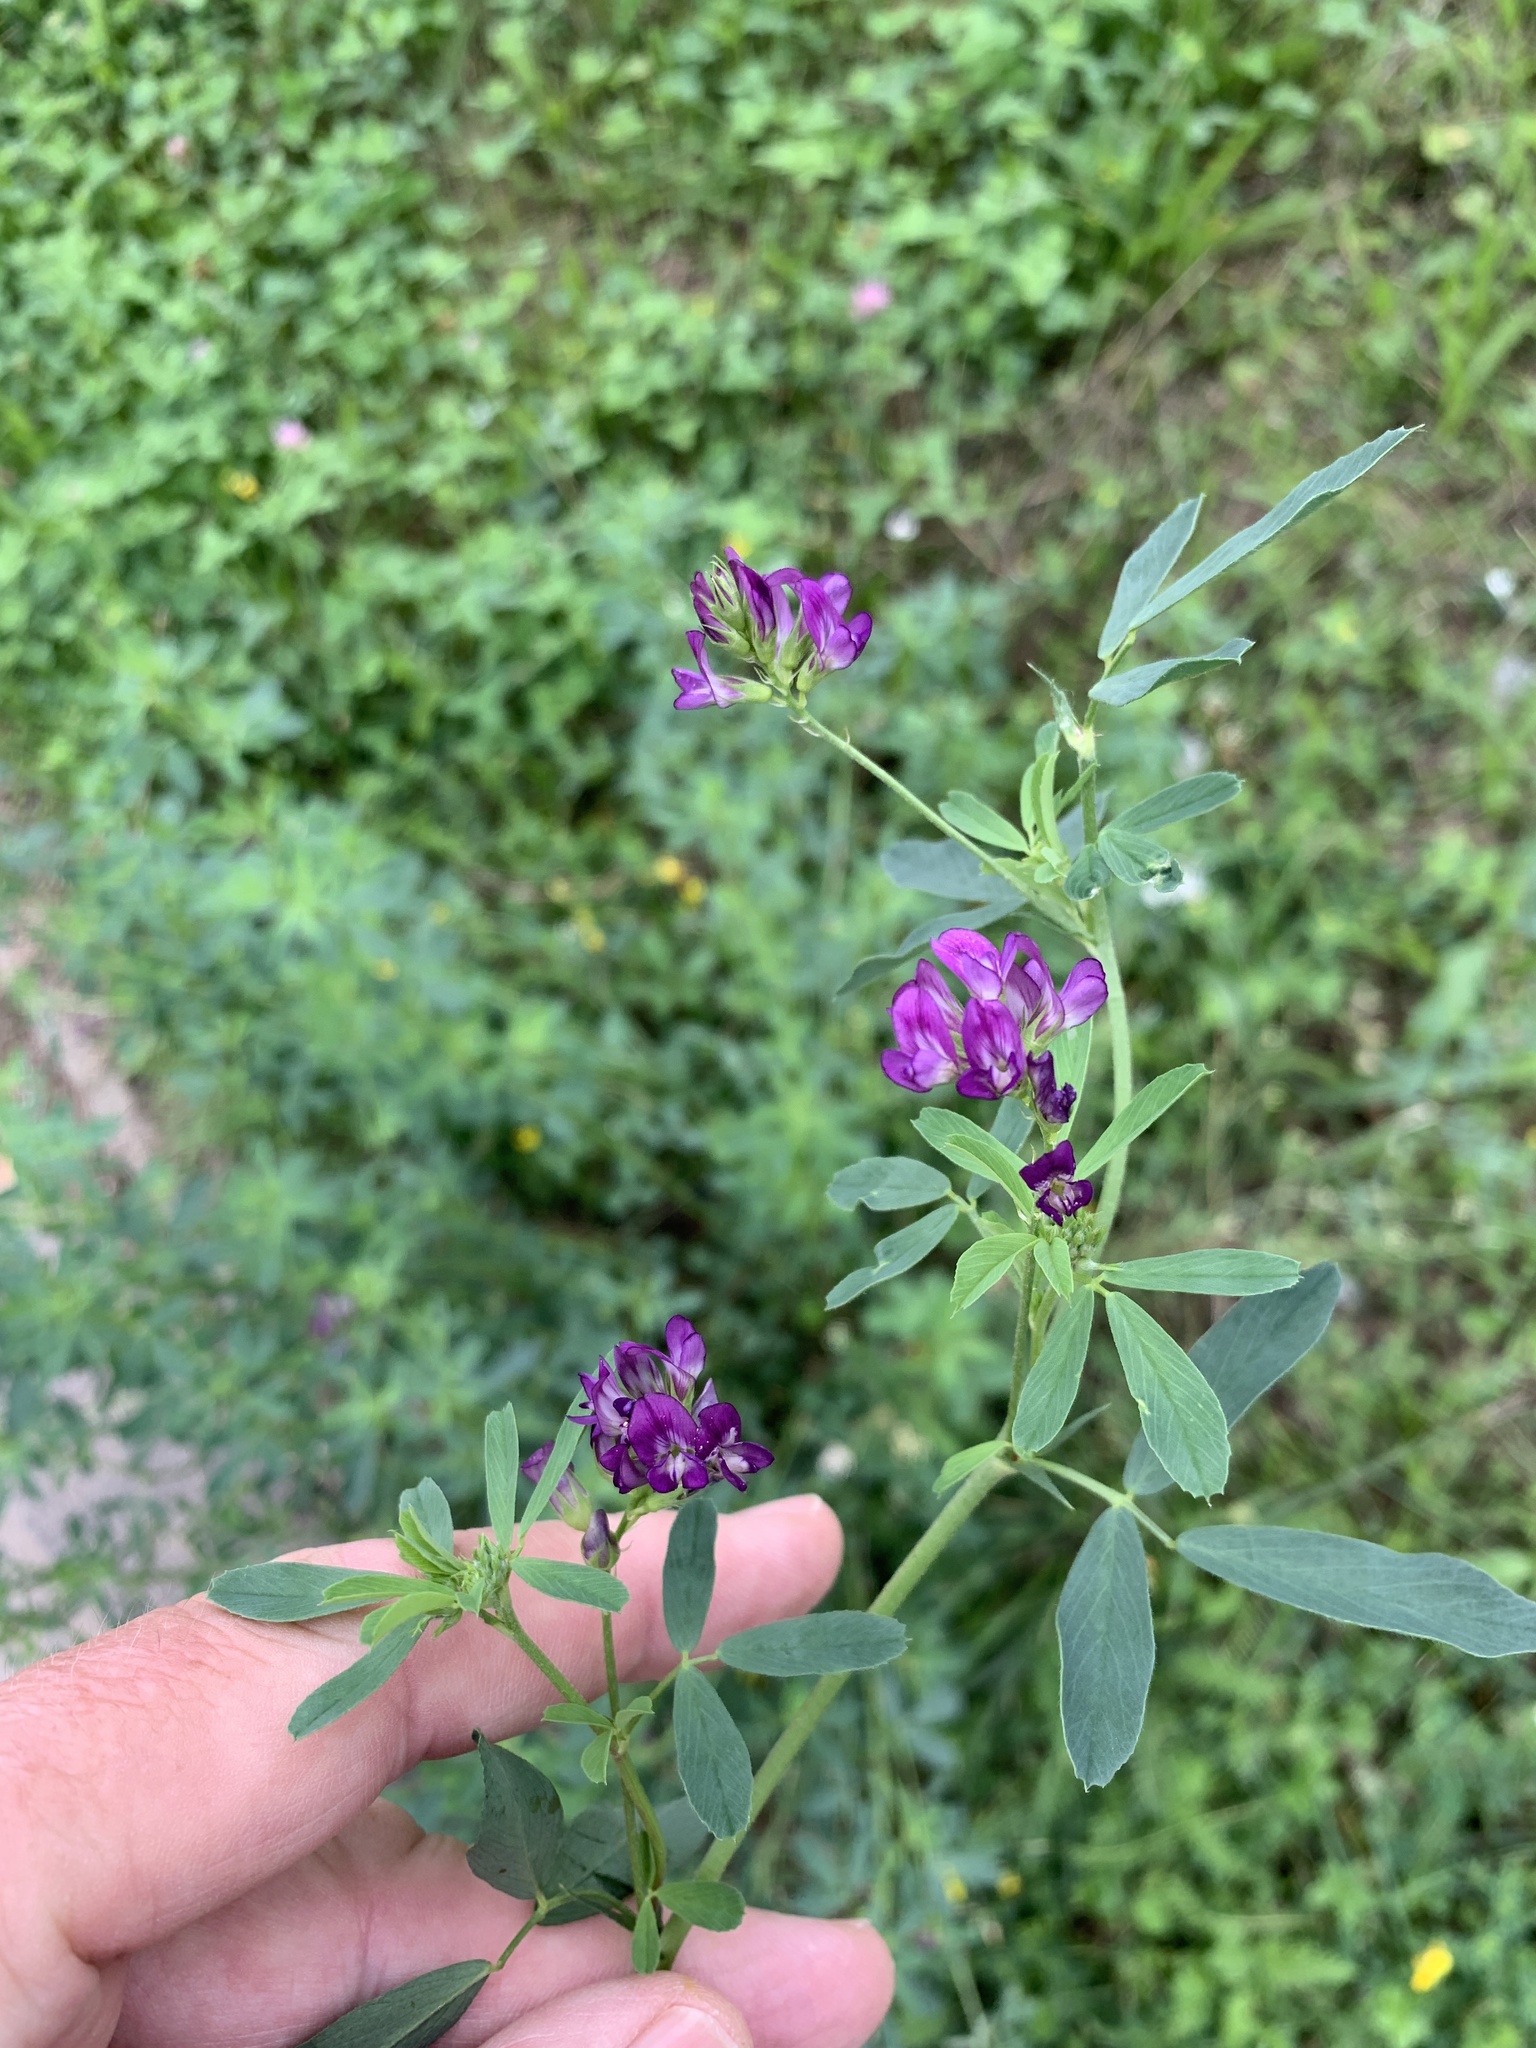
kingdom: Plantae
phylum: Tracheophyta
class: Magnoliopsida
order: Fabales
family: Fabaceae
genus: Medicago
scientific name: Medicago sativa
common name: Alfalfa
